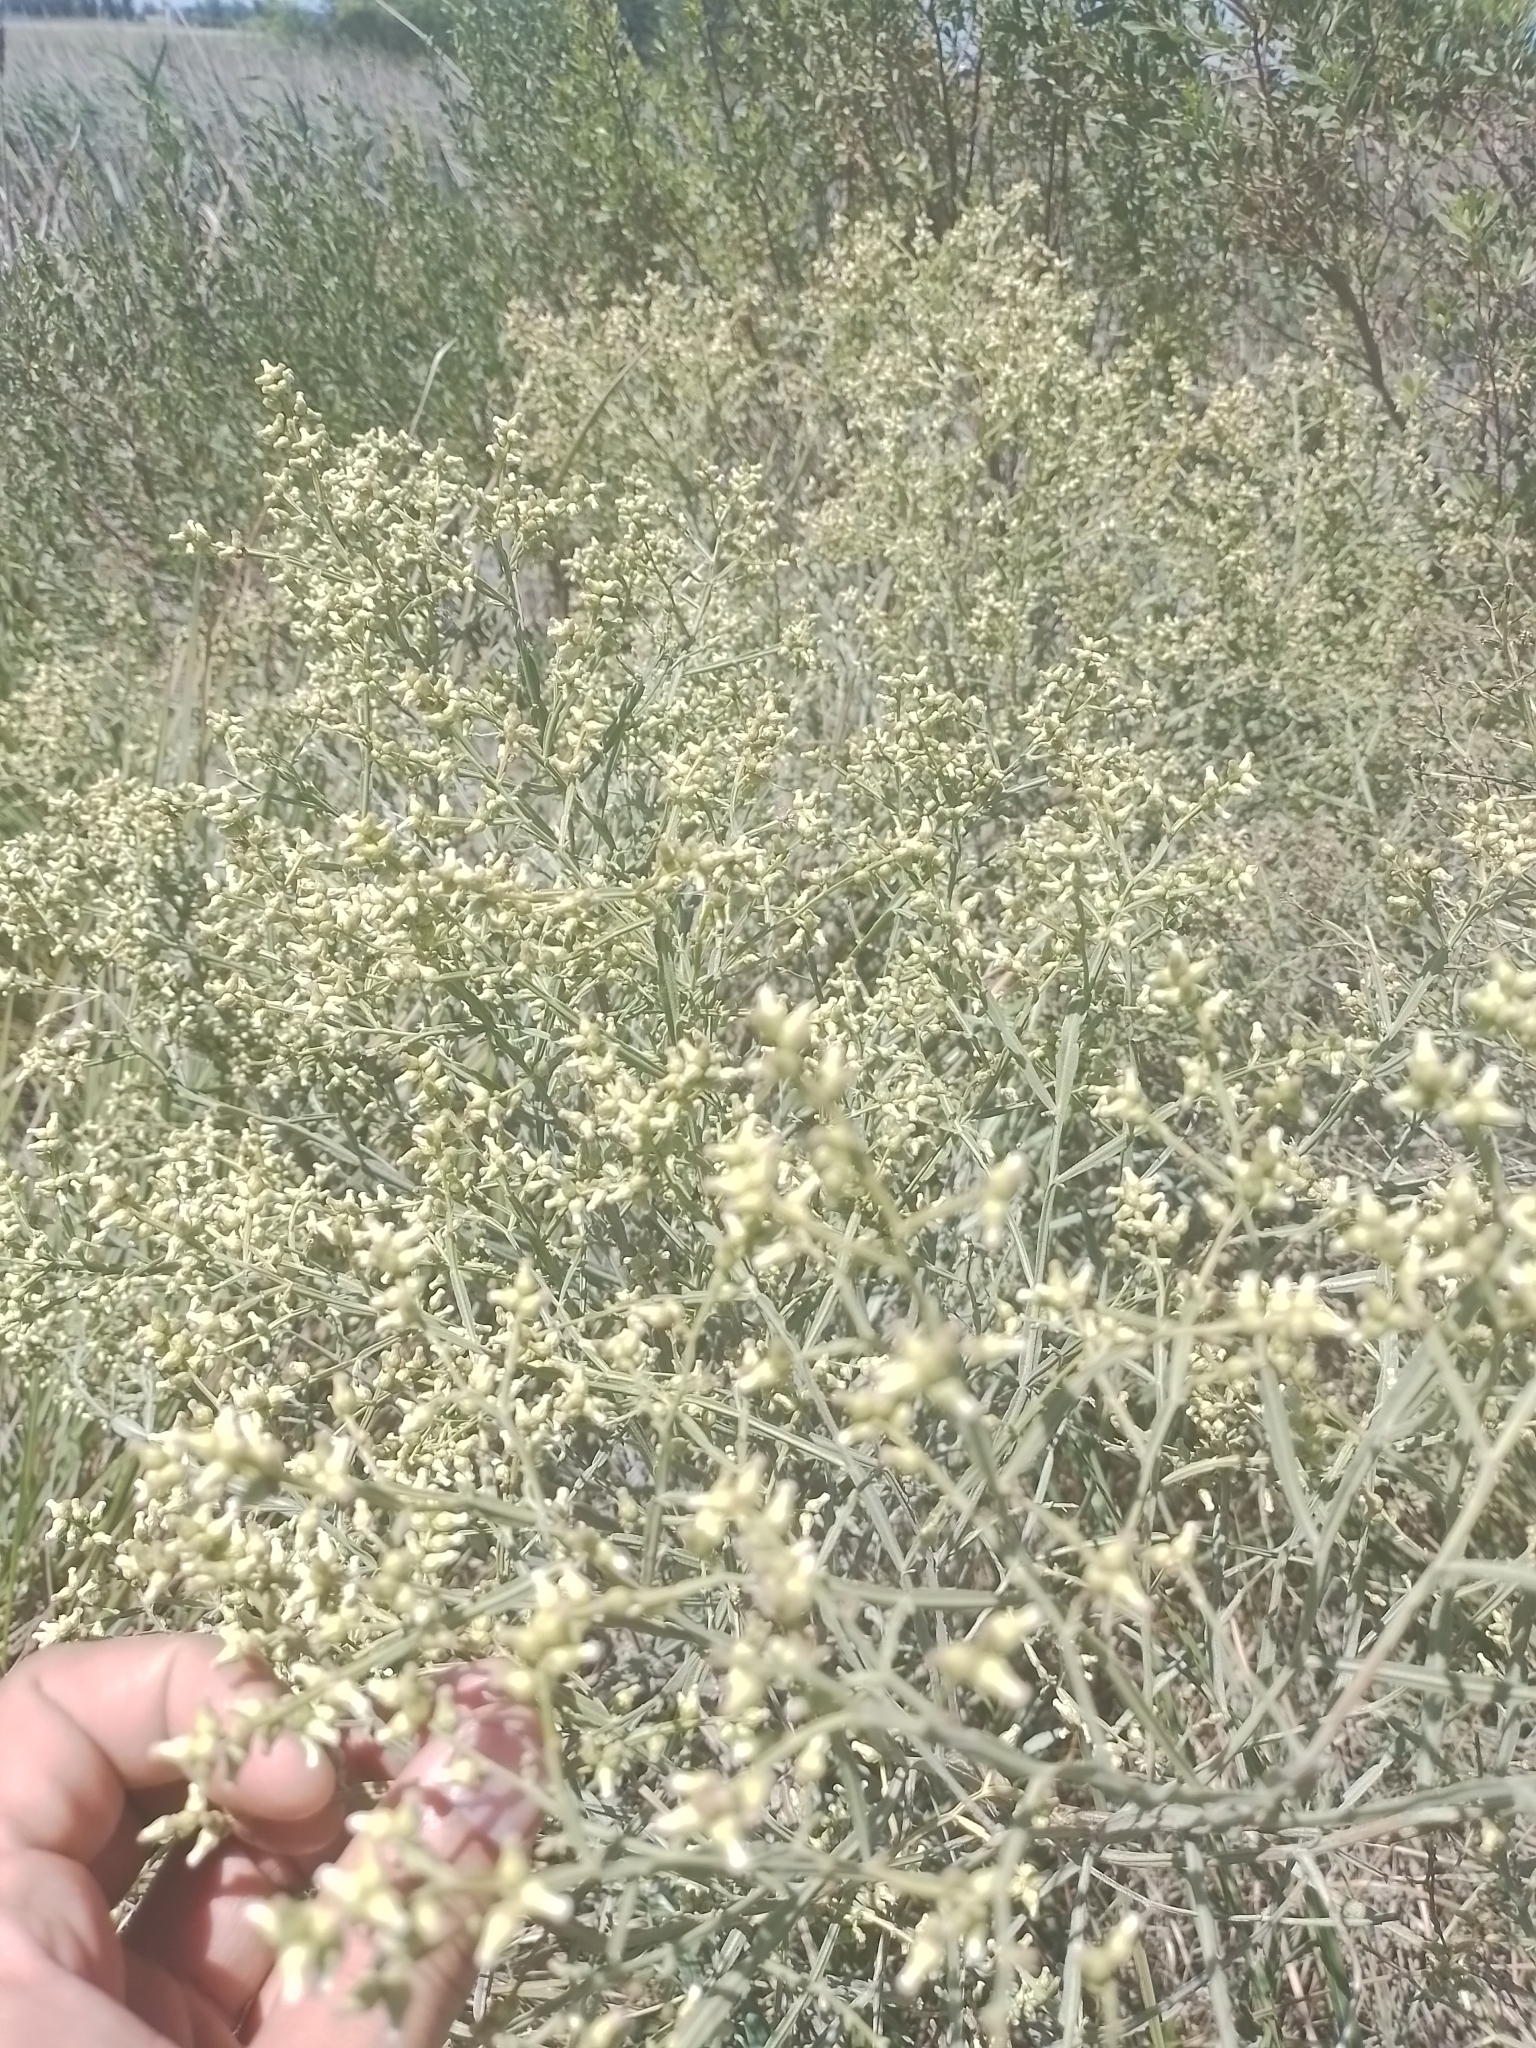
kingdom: Plantae
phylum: Tracheophyta
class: Magnoliopsida
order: Asterales
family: Asteraceae
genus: Baccharis
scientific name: Baccharis articulata
